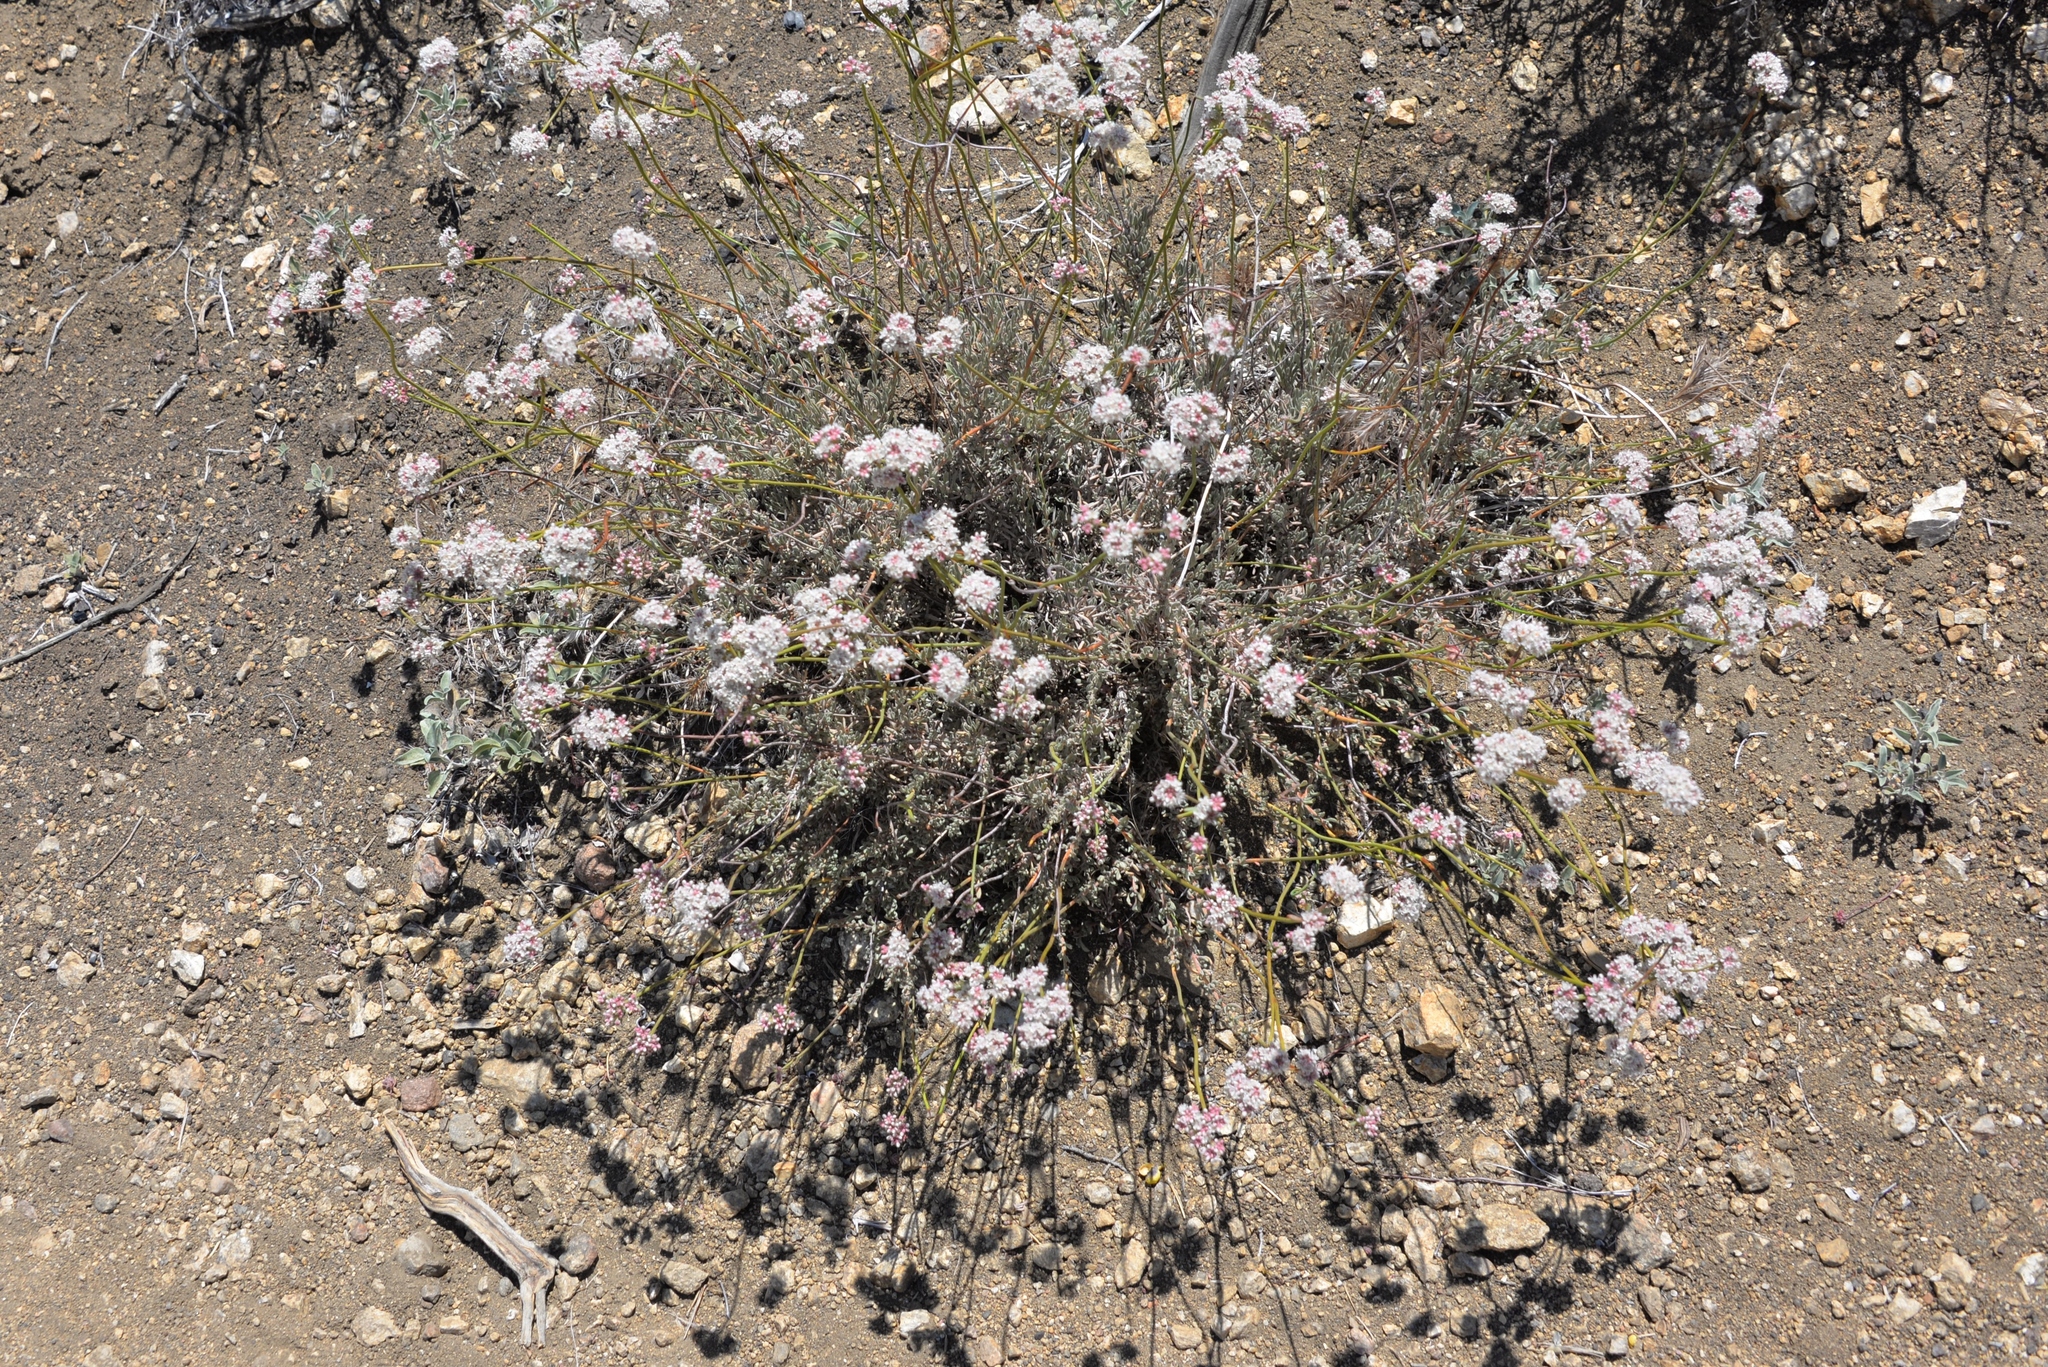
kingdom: Plantae
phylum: Tracheophyta
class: Magnoliopsida
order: Caryophyllales
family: Polygonaceae
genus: Eriogonum
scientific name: Eriogonum fasciculatum
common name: California wild buckwheat
